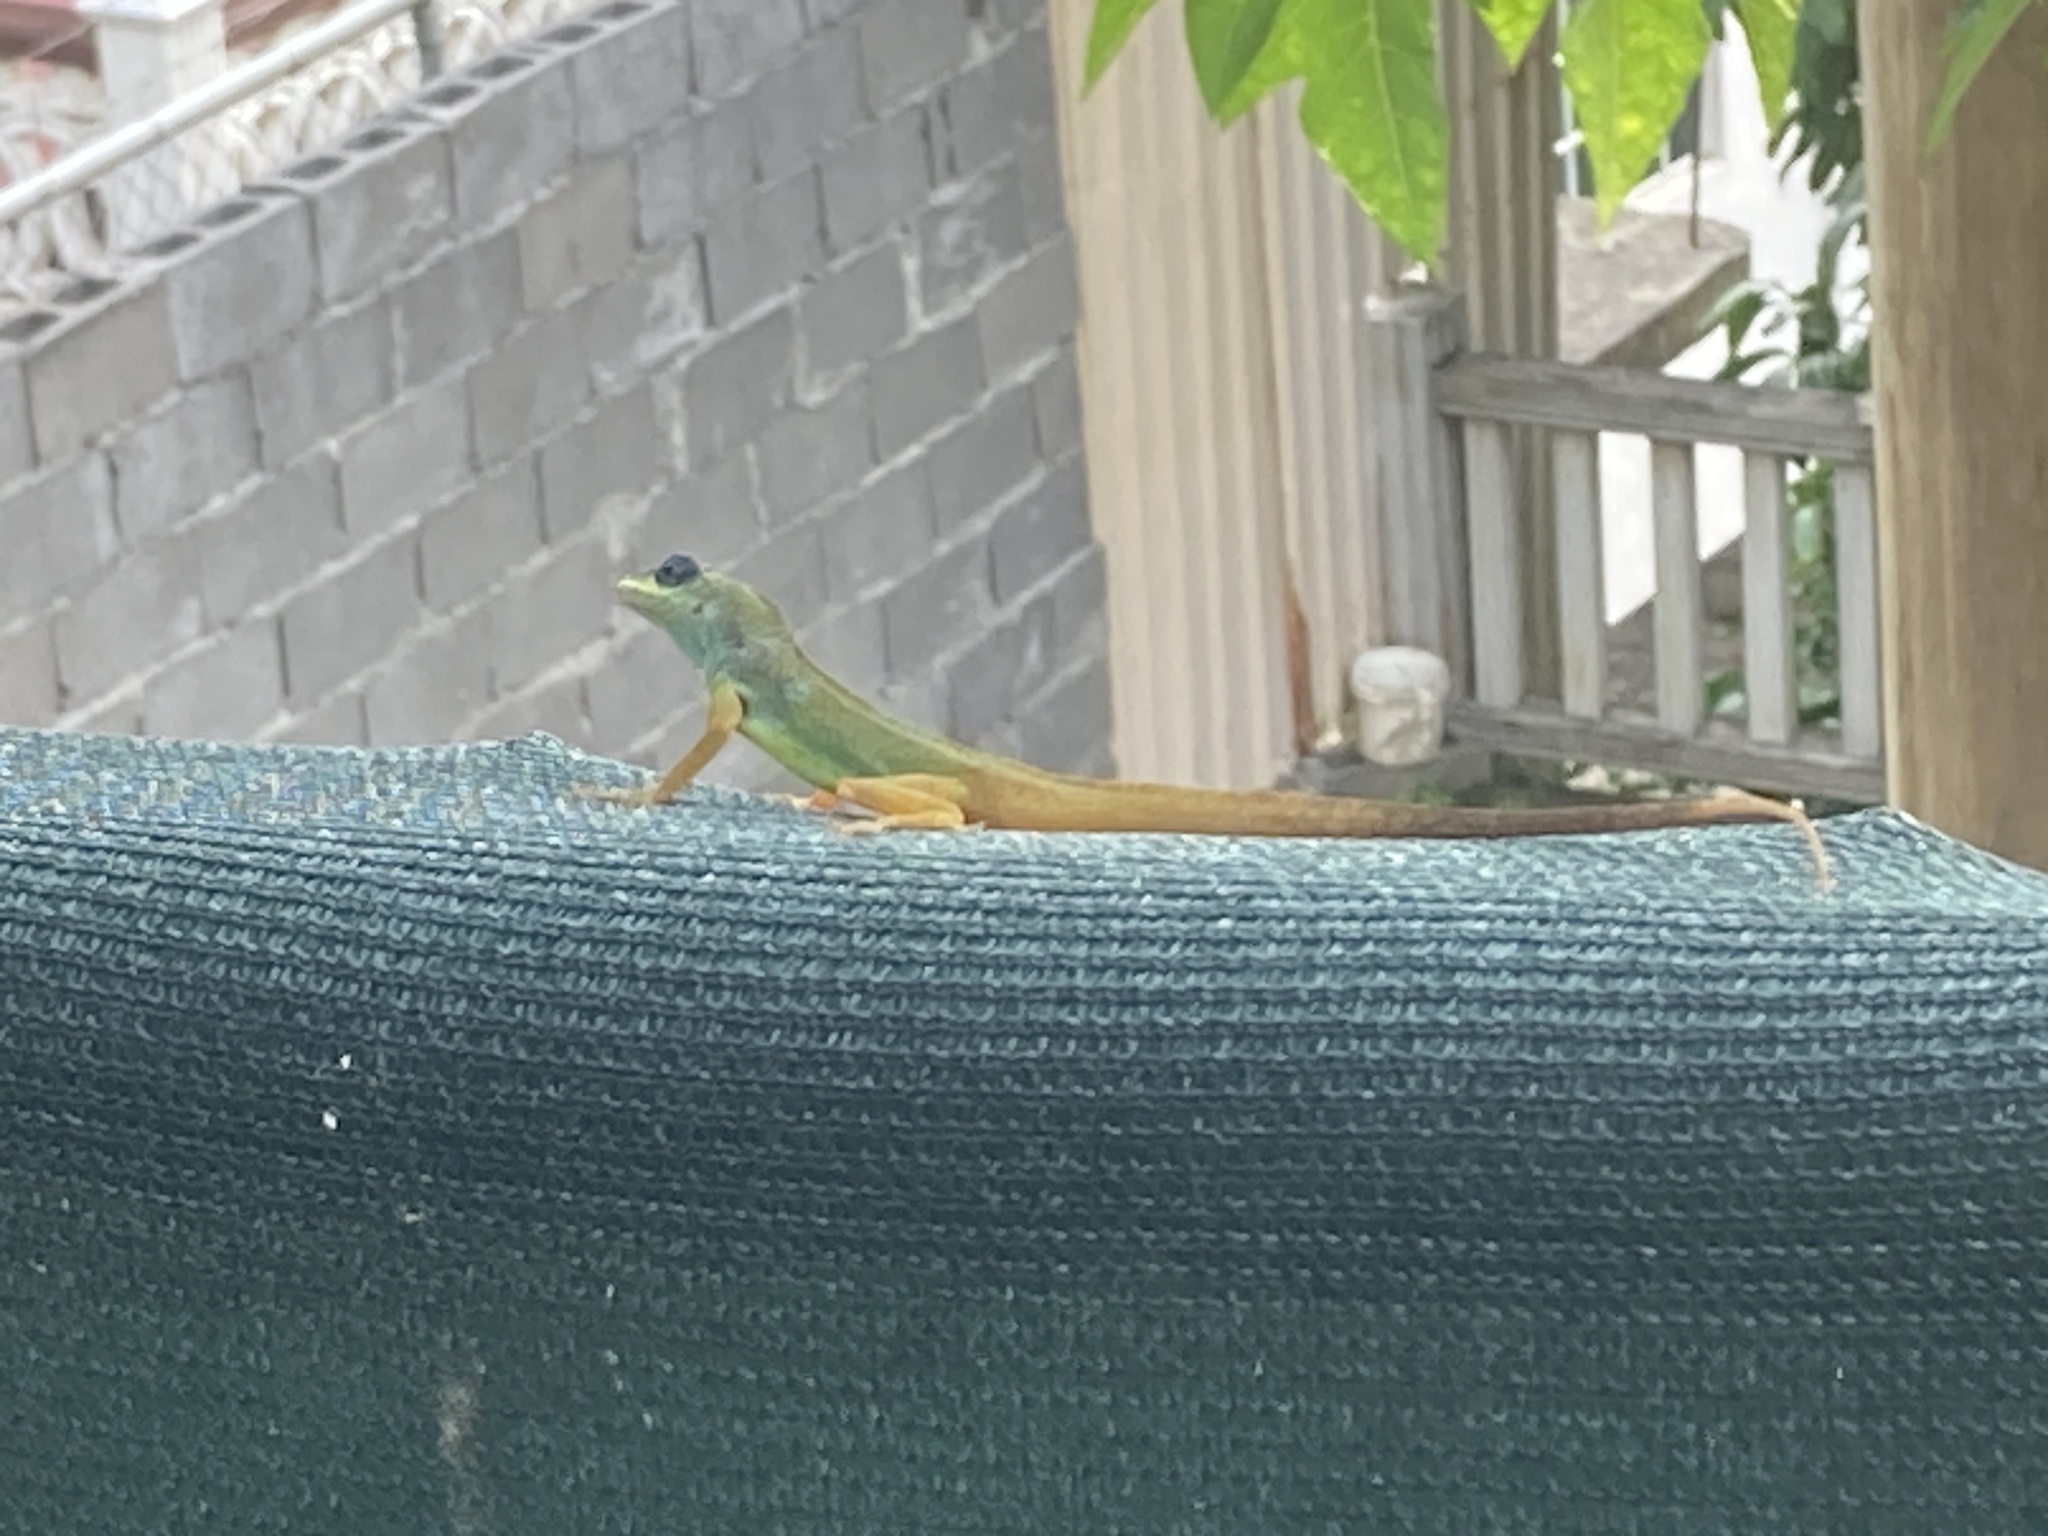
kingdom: Animalia
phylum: Chordata
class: Squamata
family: Dactyloidae
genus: Anolis
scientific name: Anolis trinitatis
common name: Saint vincent's bush anole
